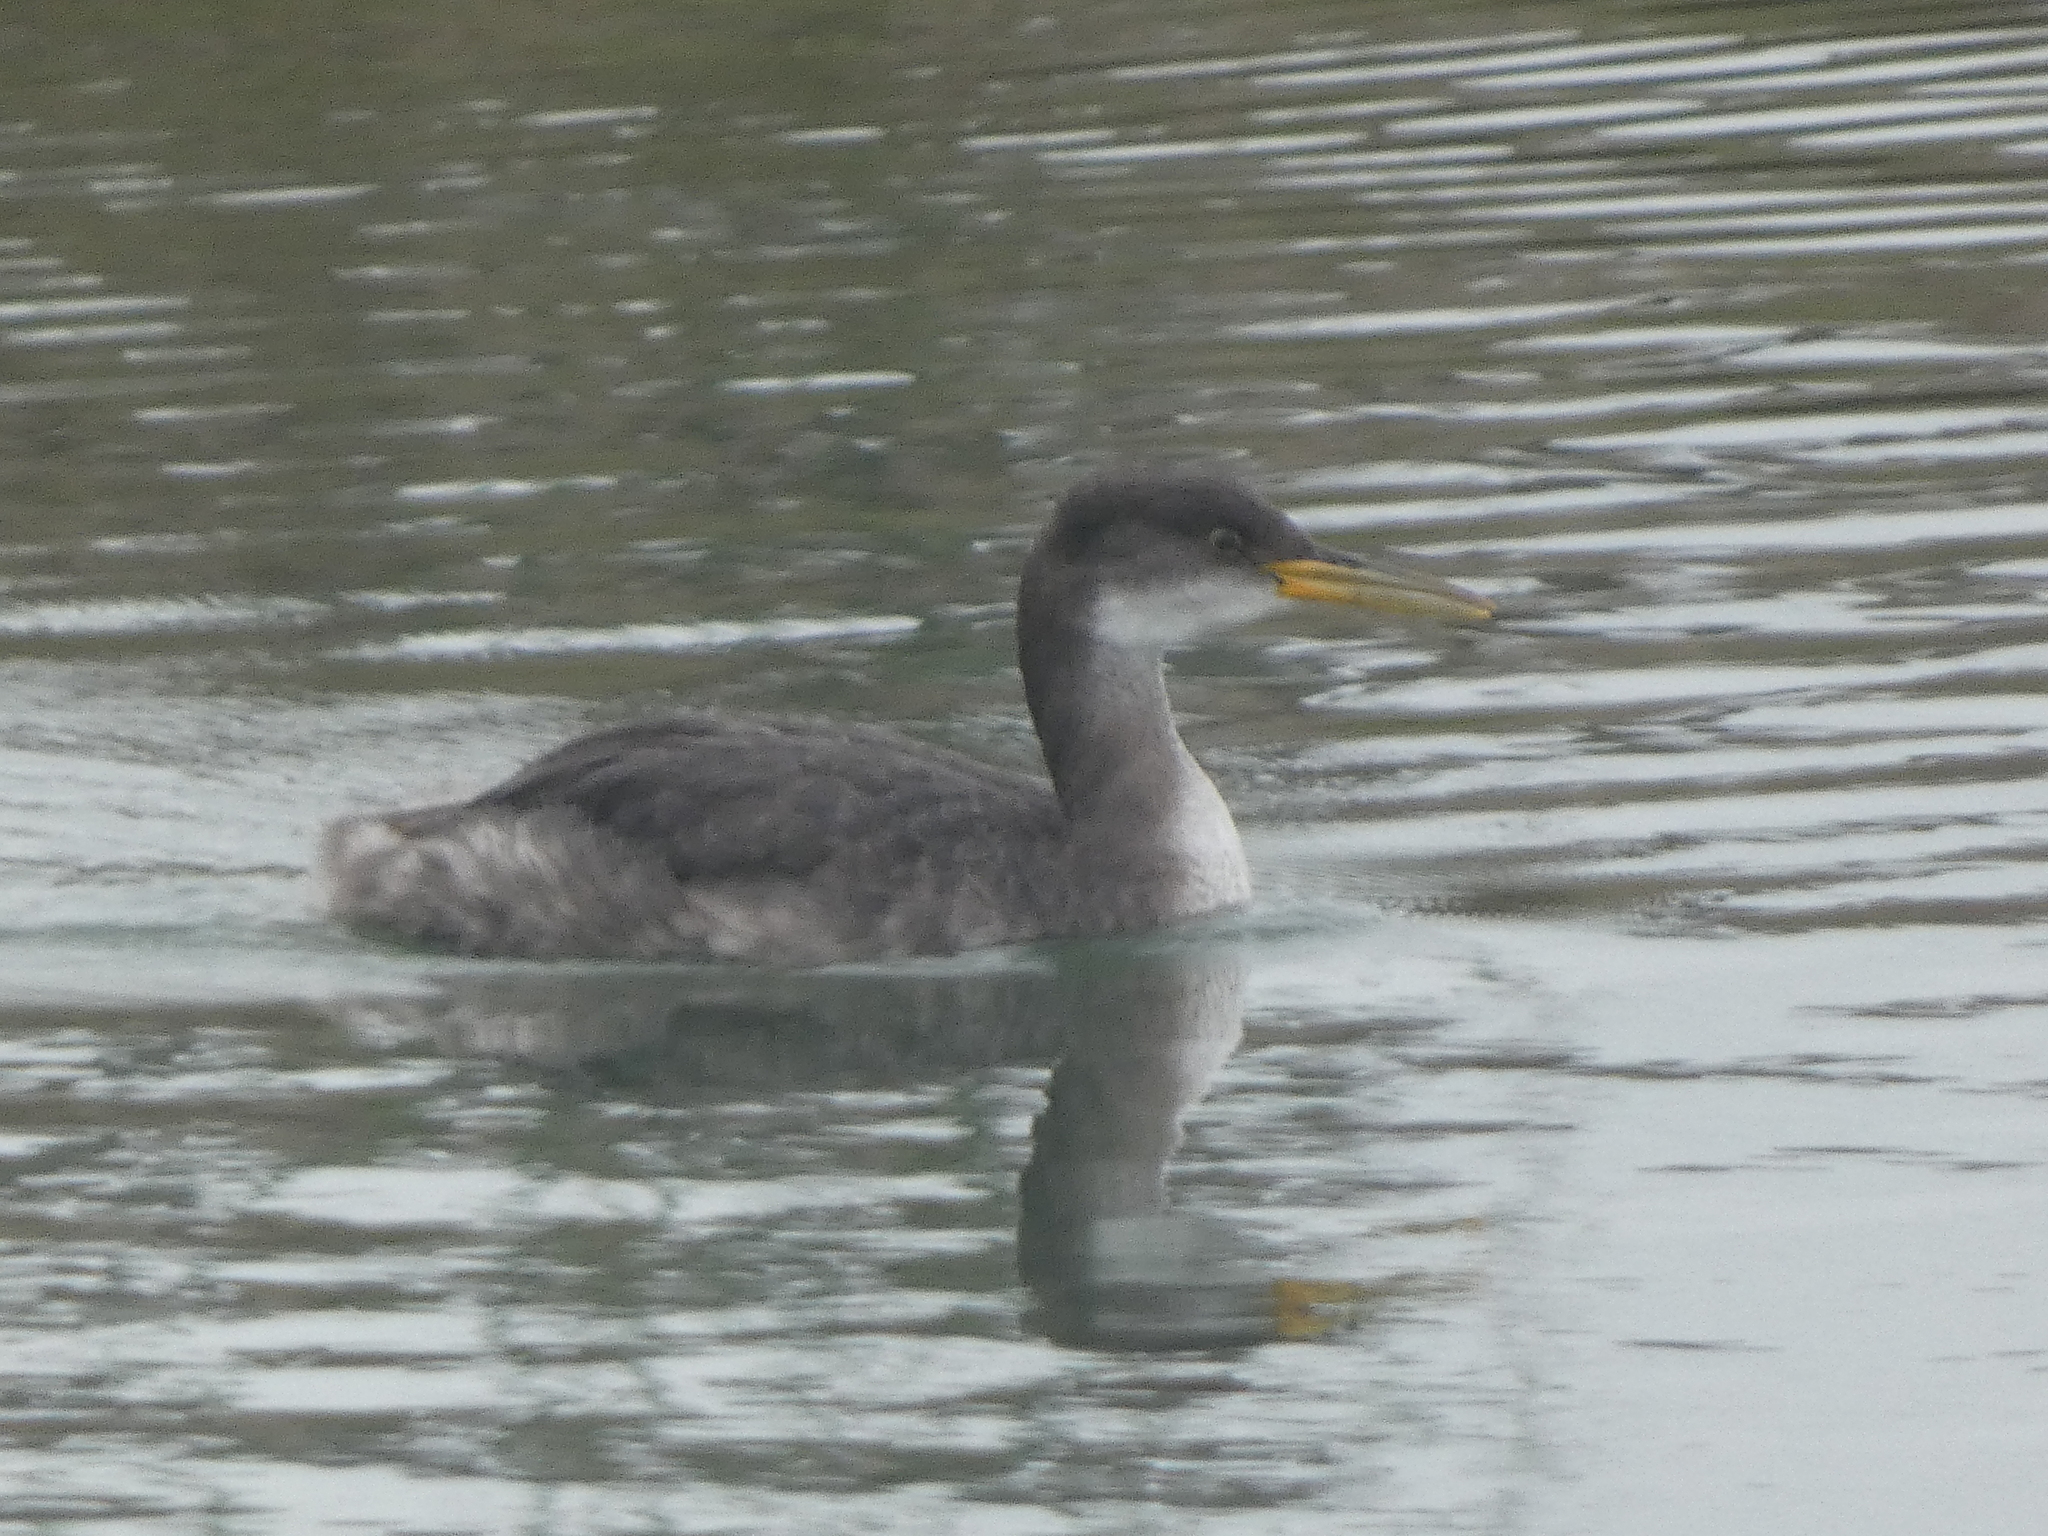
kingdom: Animalia
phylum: Chordata
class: Aves
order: Podicipediformes
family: Podicipedidae
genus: Podiceps
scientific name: Podiceps grisegena
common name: Red-necked grebe
